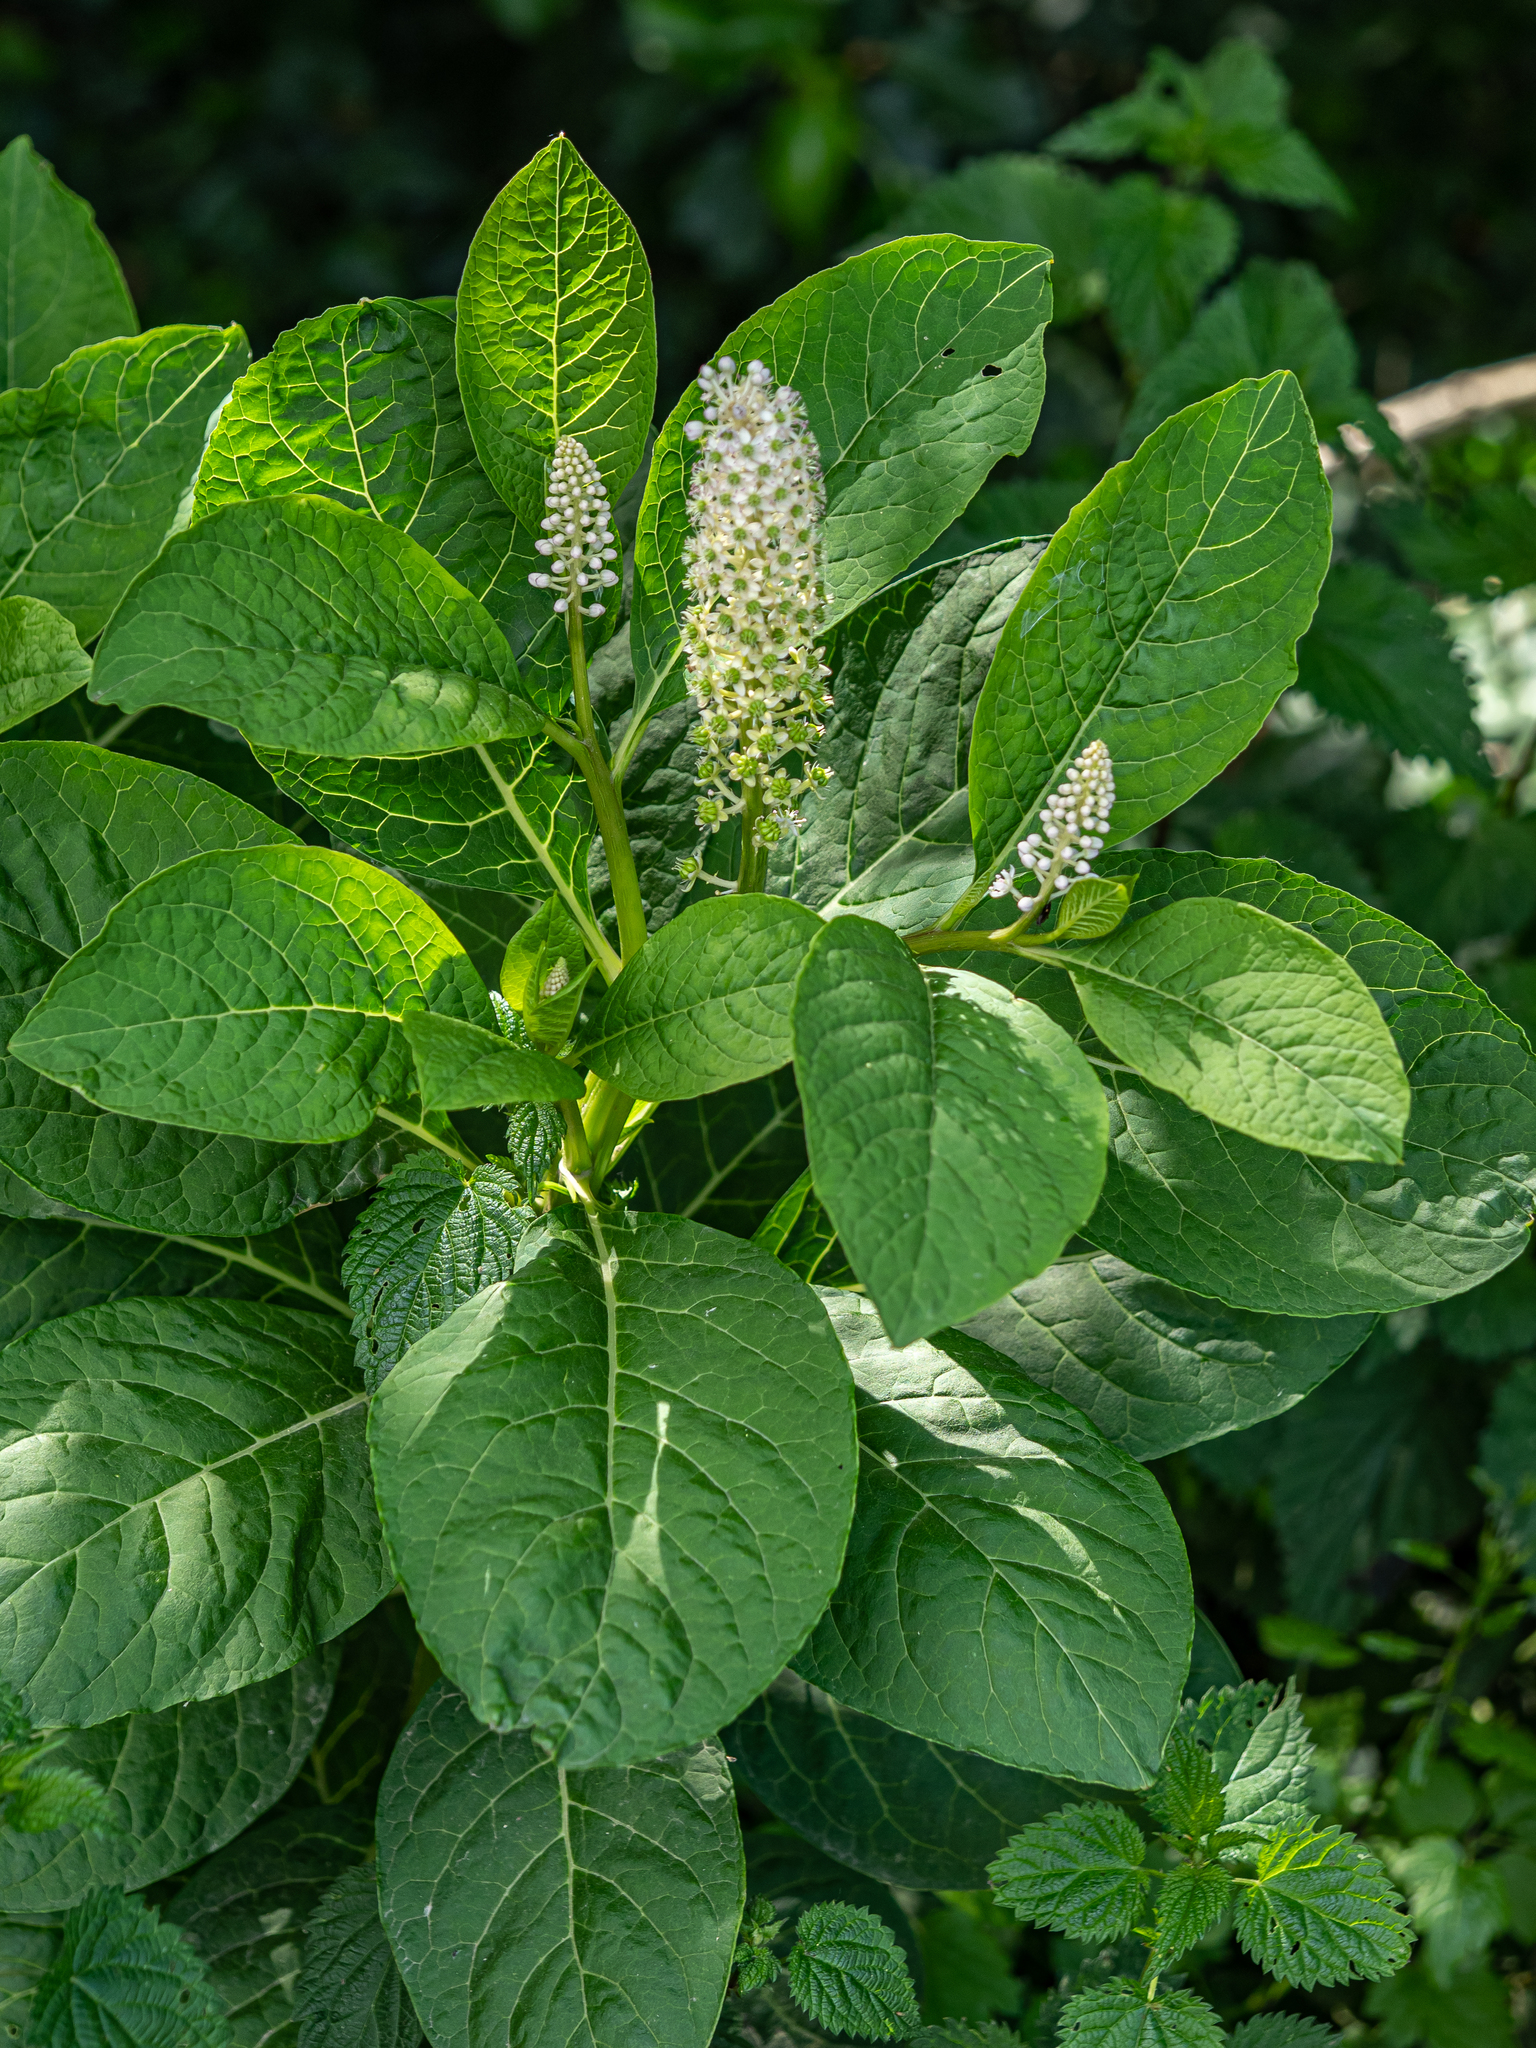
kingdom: Plantae
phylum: Tracheophyta
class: Magnoliopsida
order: Caryophyllales
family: Phytolaccaceae
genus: Phytolacca
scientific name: Phytolacca acinosa
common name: Indian pokeweed
